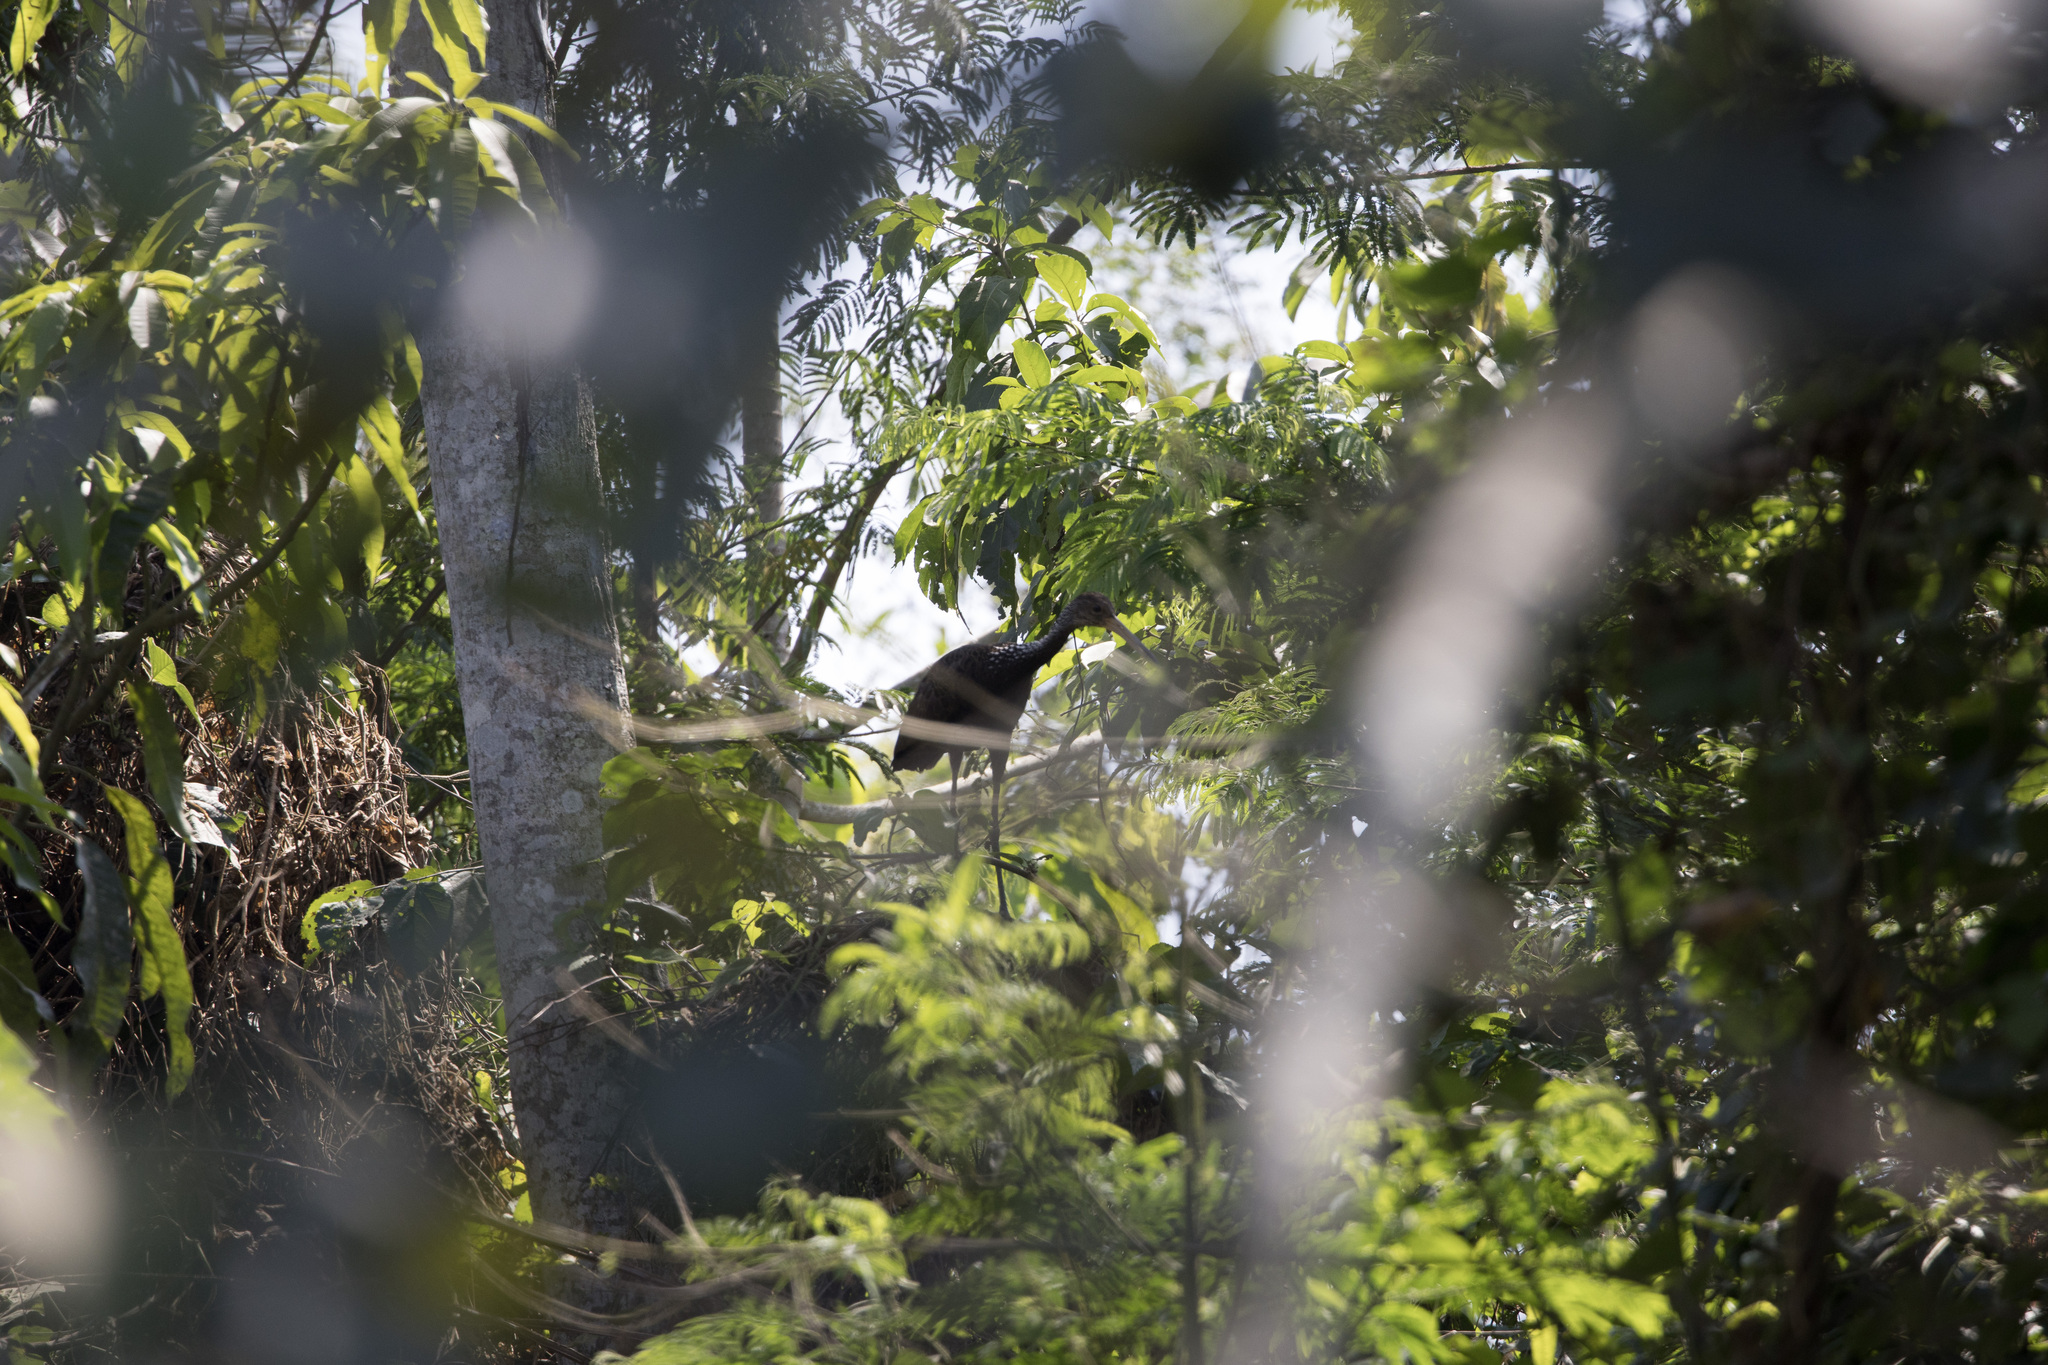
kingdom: Animalia
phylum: Chordata
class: Aves
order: Gruiformes
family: Aramidae
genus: Aramus
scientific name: Aramus guarauna
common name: Limpkin
